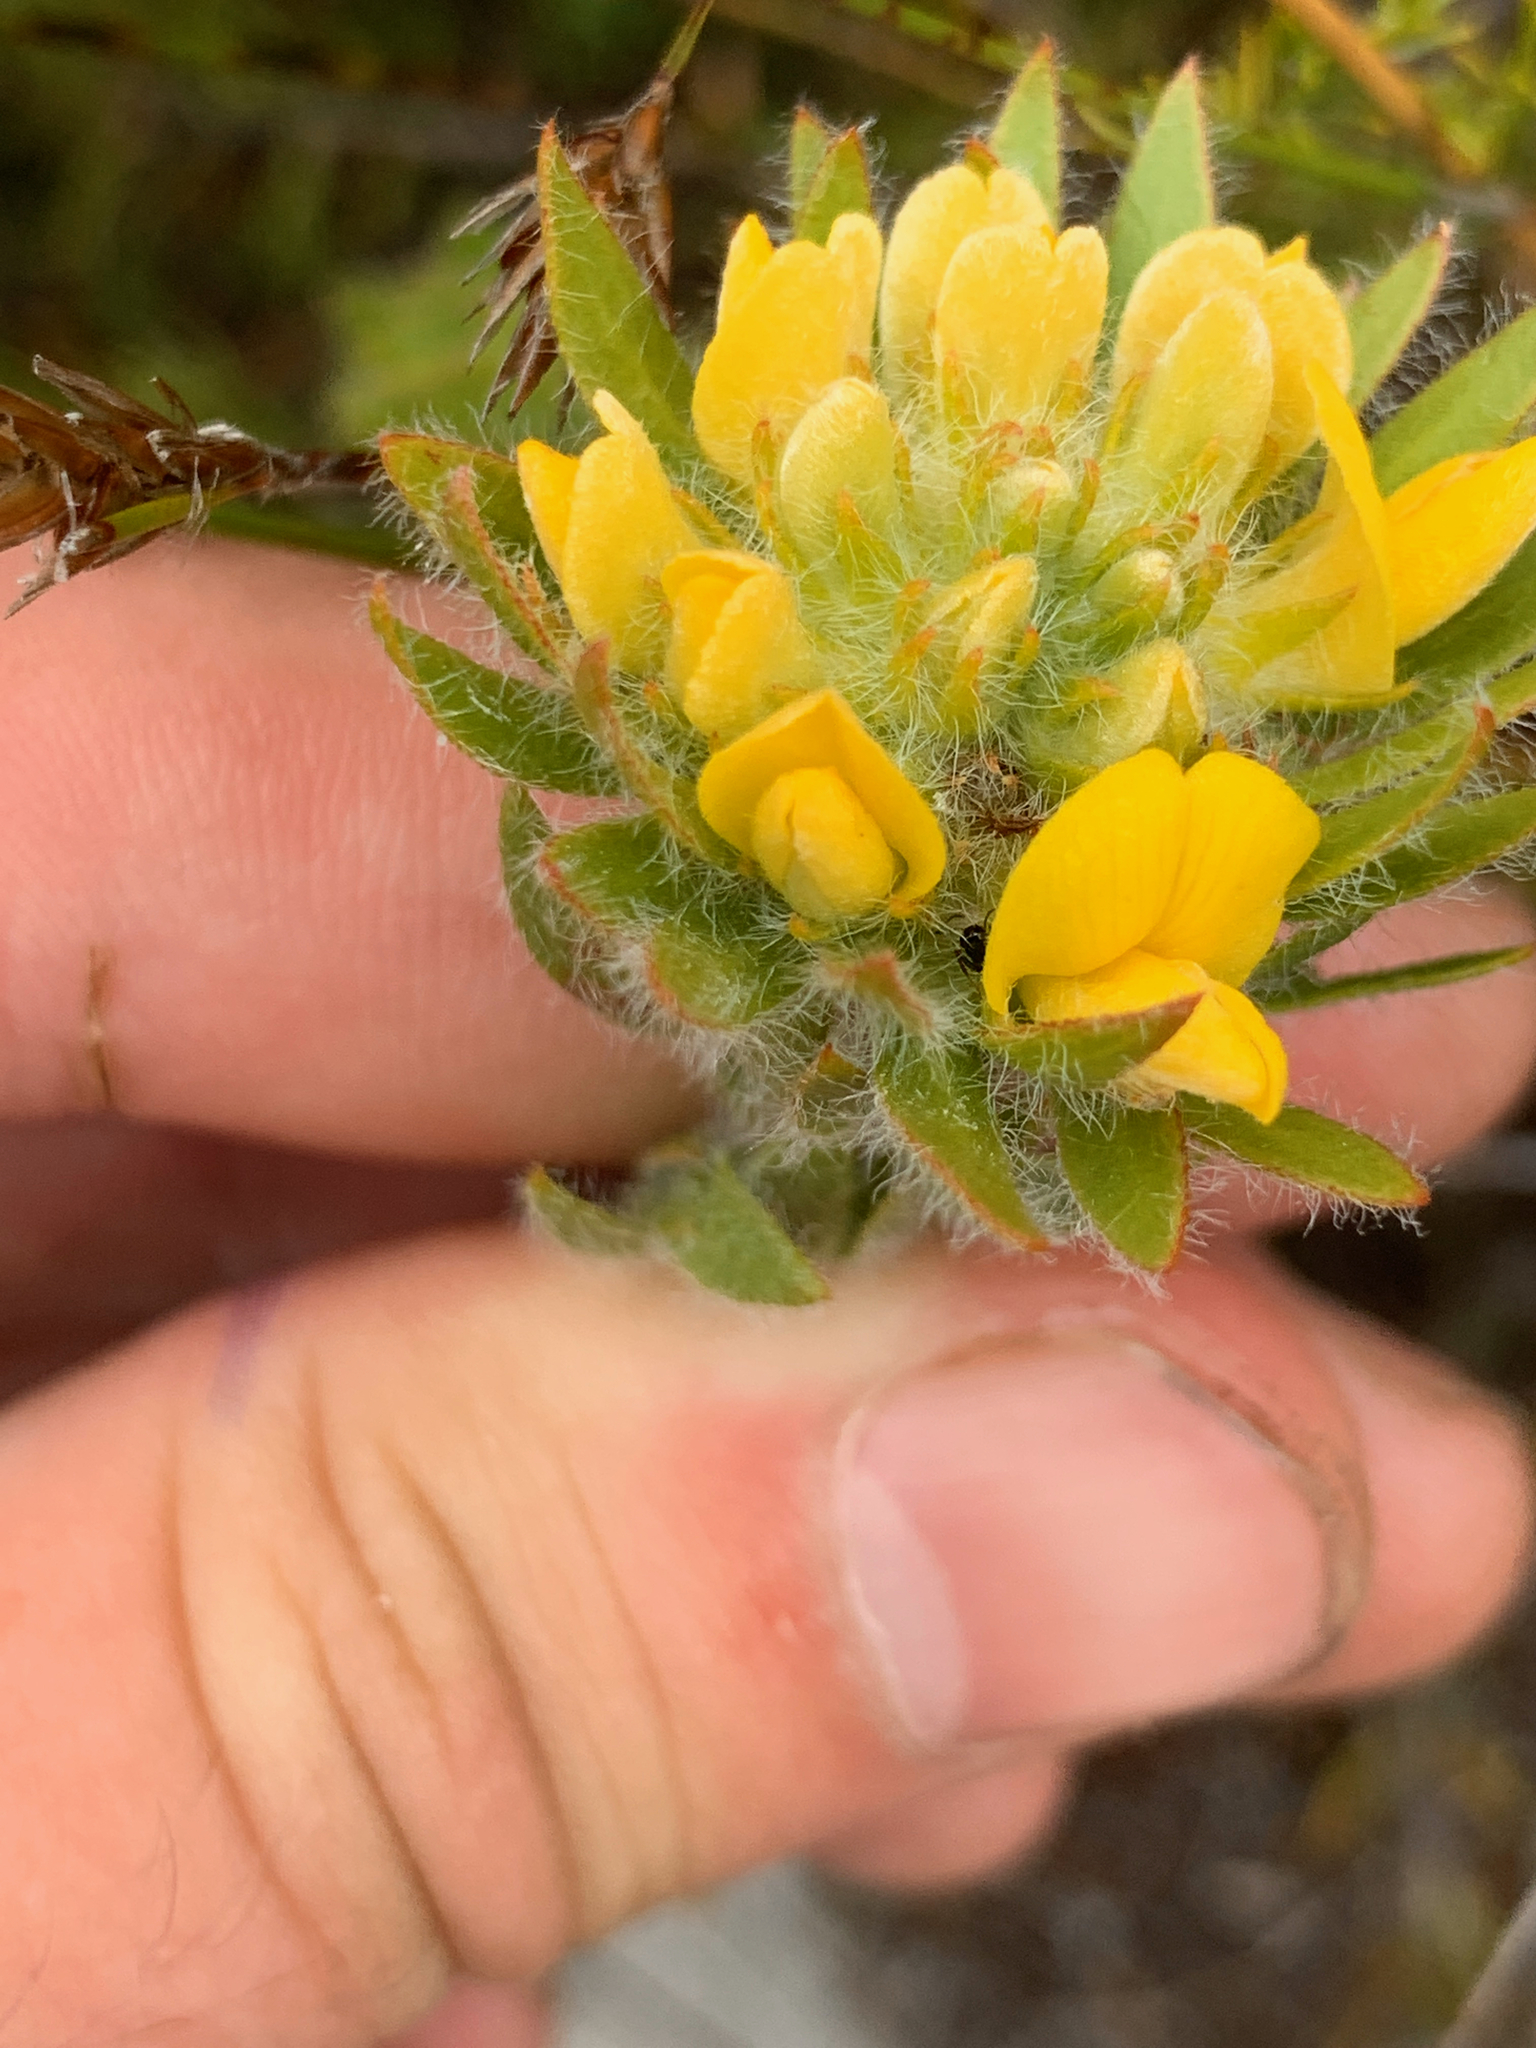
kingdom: Plantae
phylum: Tracheophyta
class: Magnoliopsida
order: Fabales
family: Fabaceae
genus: Aspalathus
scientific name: Aspalathus aspalathoides
